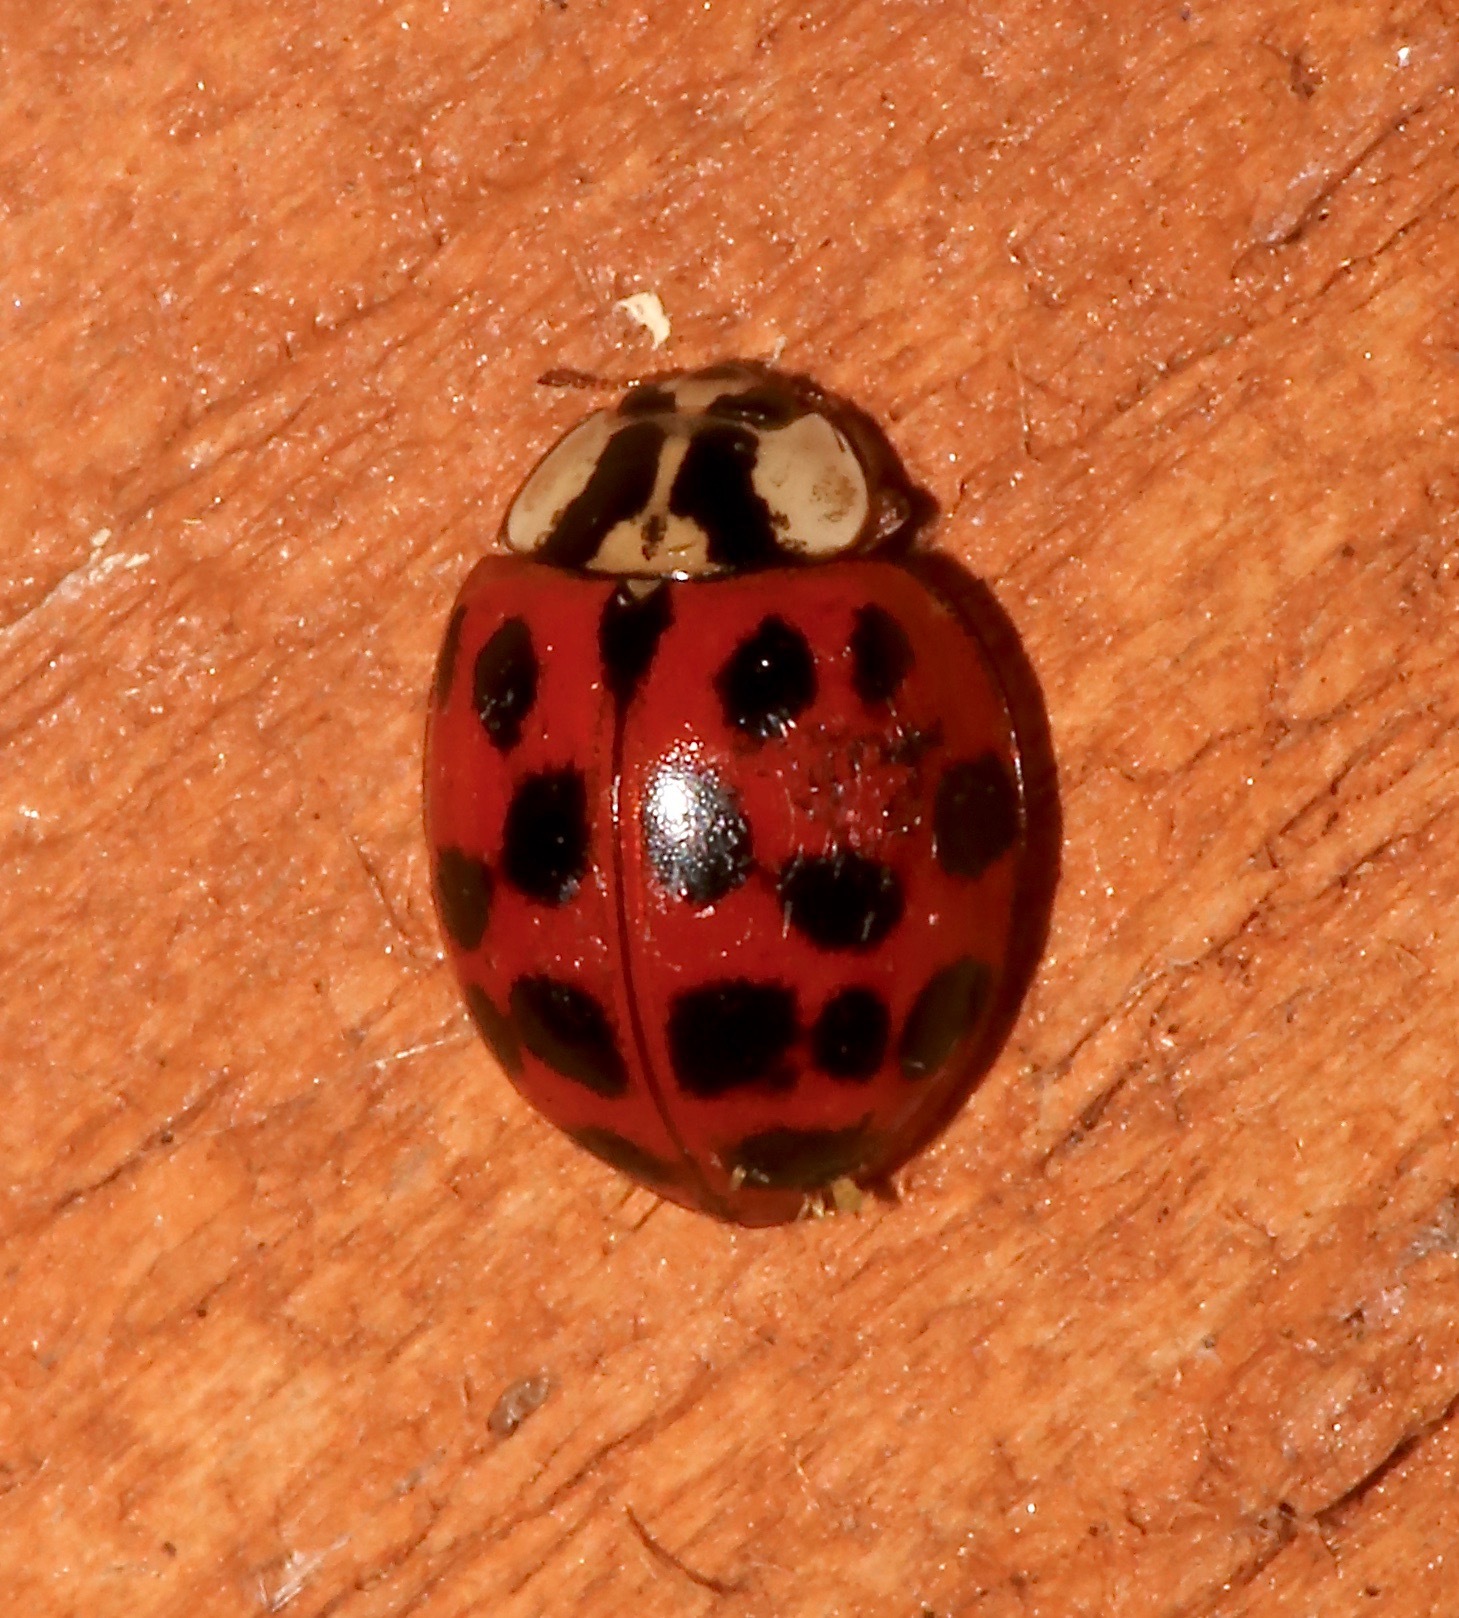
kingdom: Animalia
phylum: Arthropoda
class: Insecta
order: Coleoptera
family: Coccinellidae
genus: Harmonia
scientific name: Harmonia axyridis
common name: Harlequin ladybird
